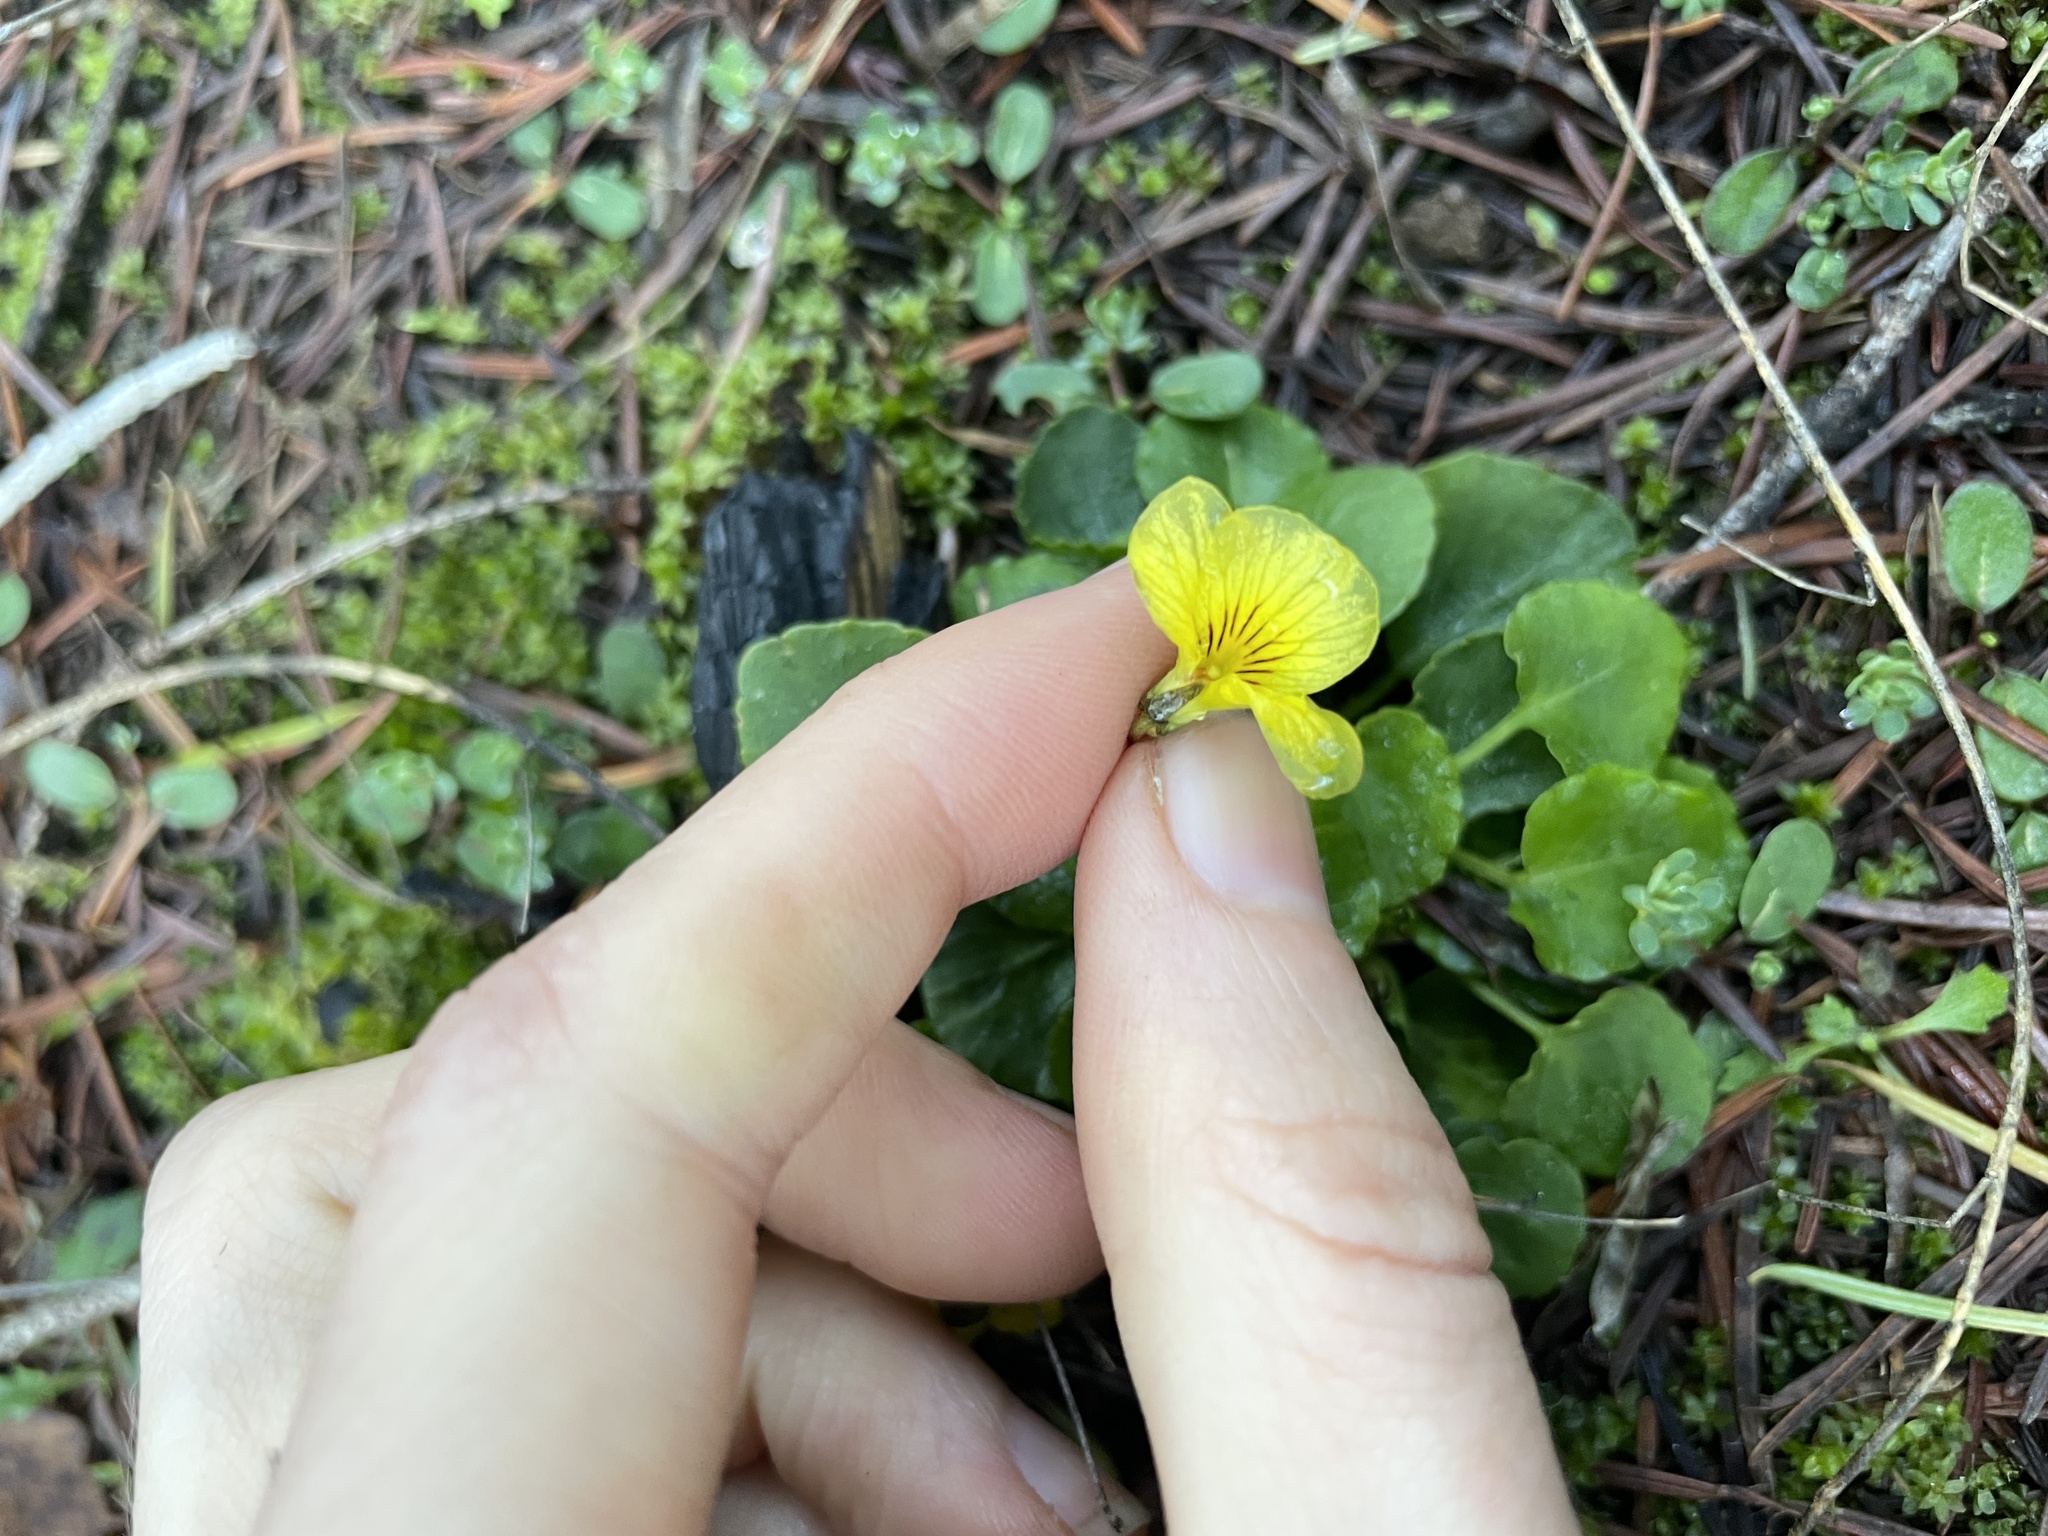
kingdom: Plantae
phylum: Tracheophyta
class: Magnoliopsida
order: Malpighiales
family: Violaceae
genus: Viola
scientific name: Viola sempervirens
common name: Evergreen violet
